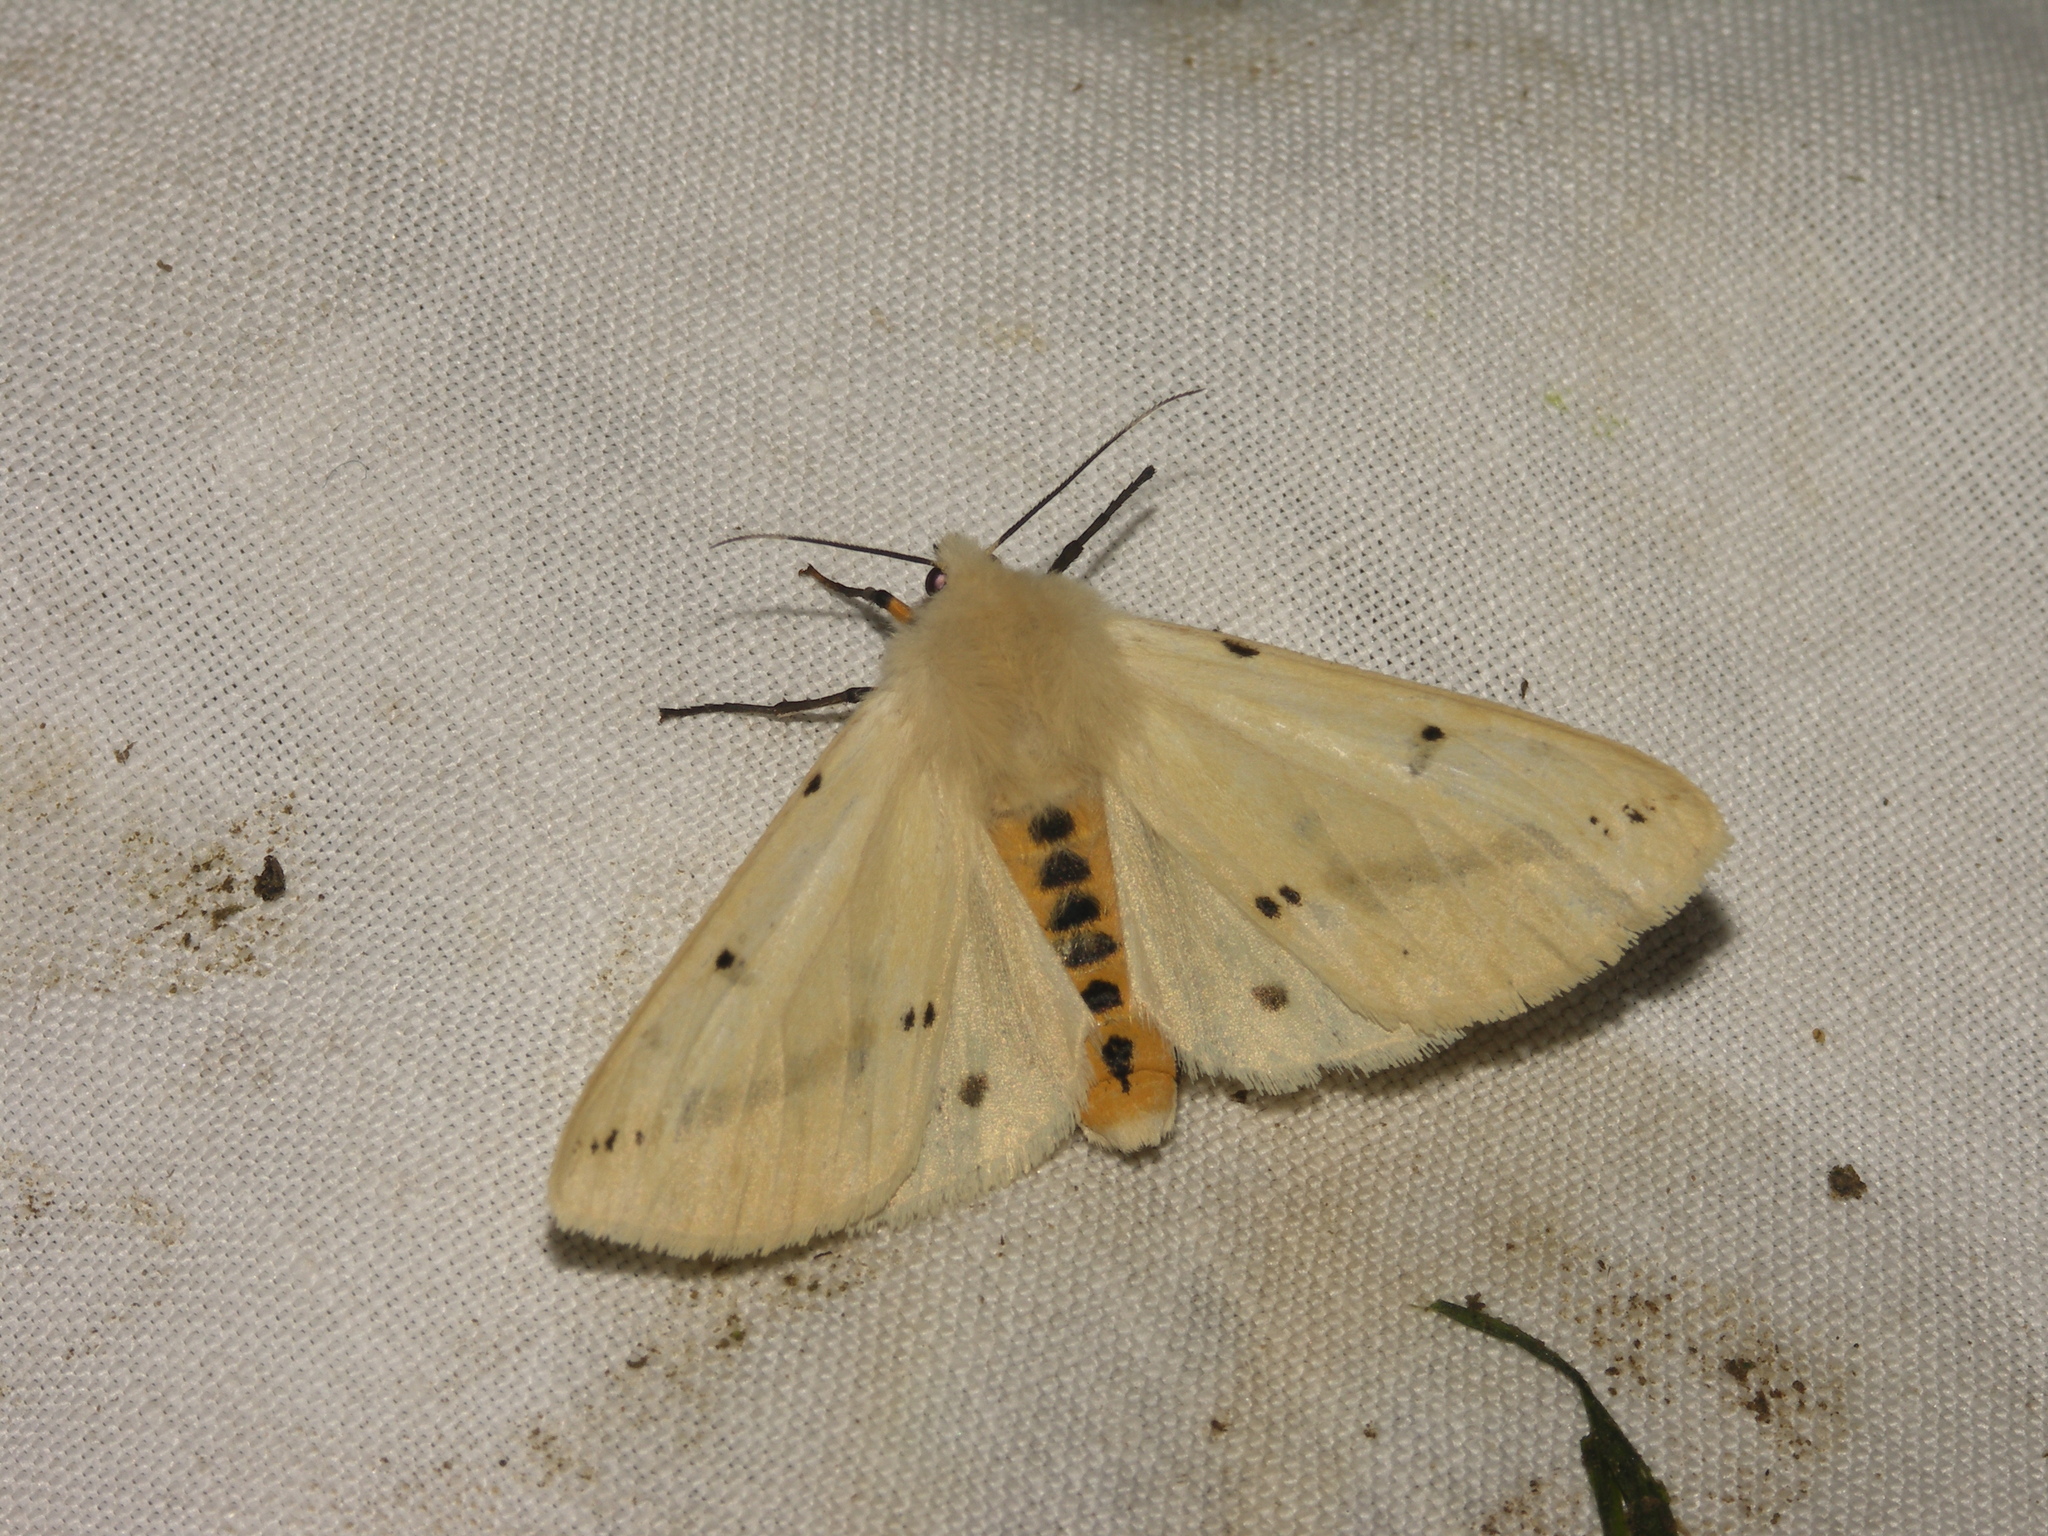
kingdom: Animalia
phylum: Arthropoda
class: Insecta
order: Lepidoptera
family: Erebidae
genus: Spilarctia
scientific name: Spilarctia lutea
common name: Buff ermine
